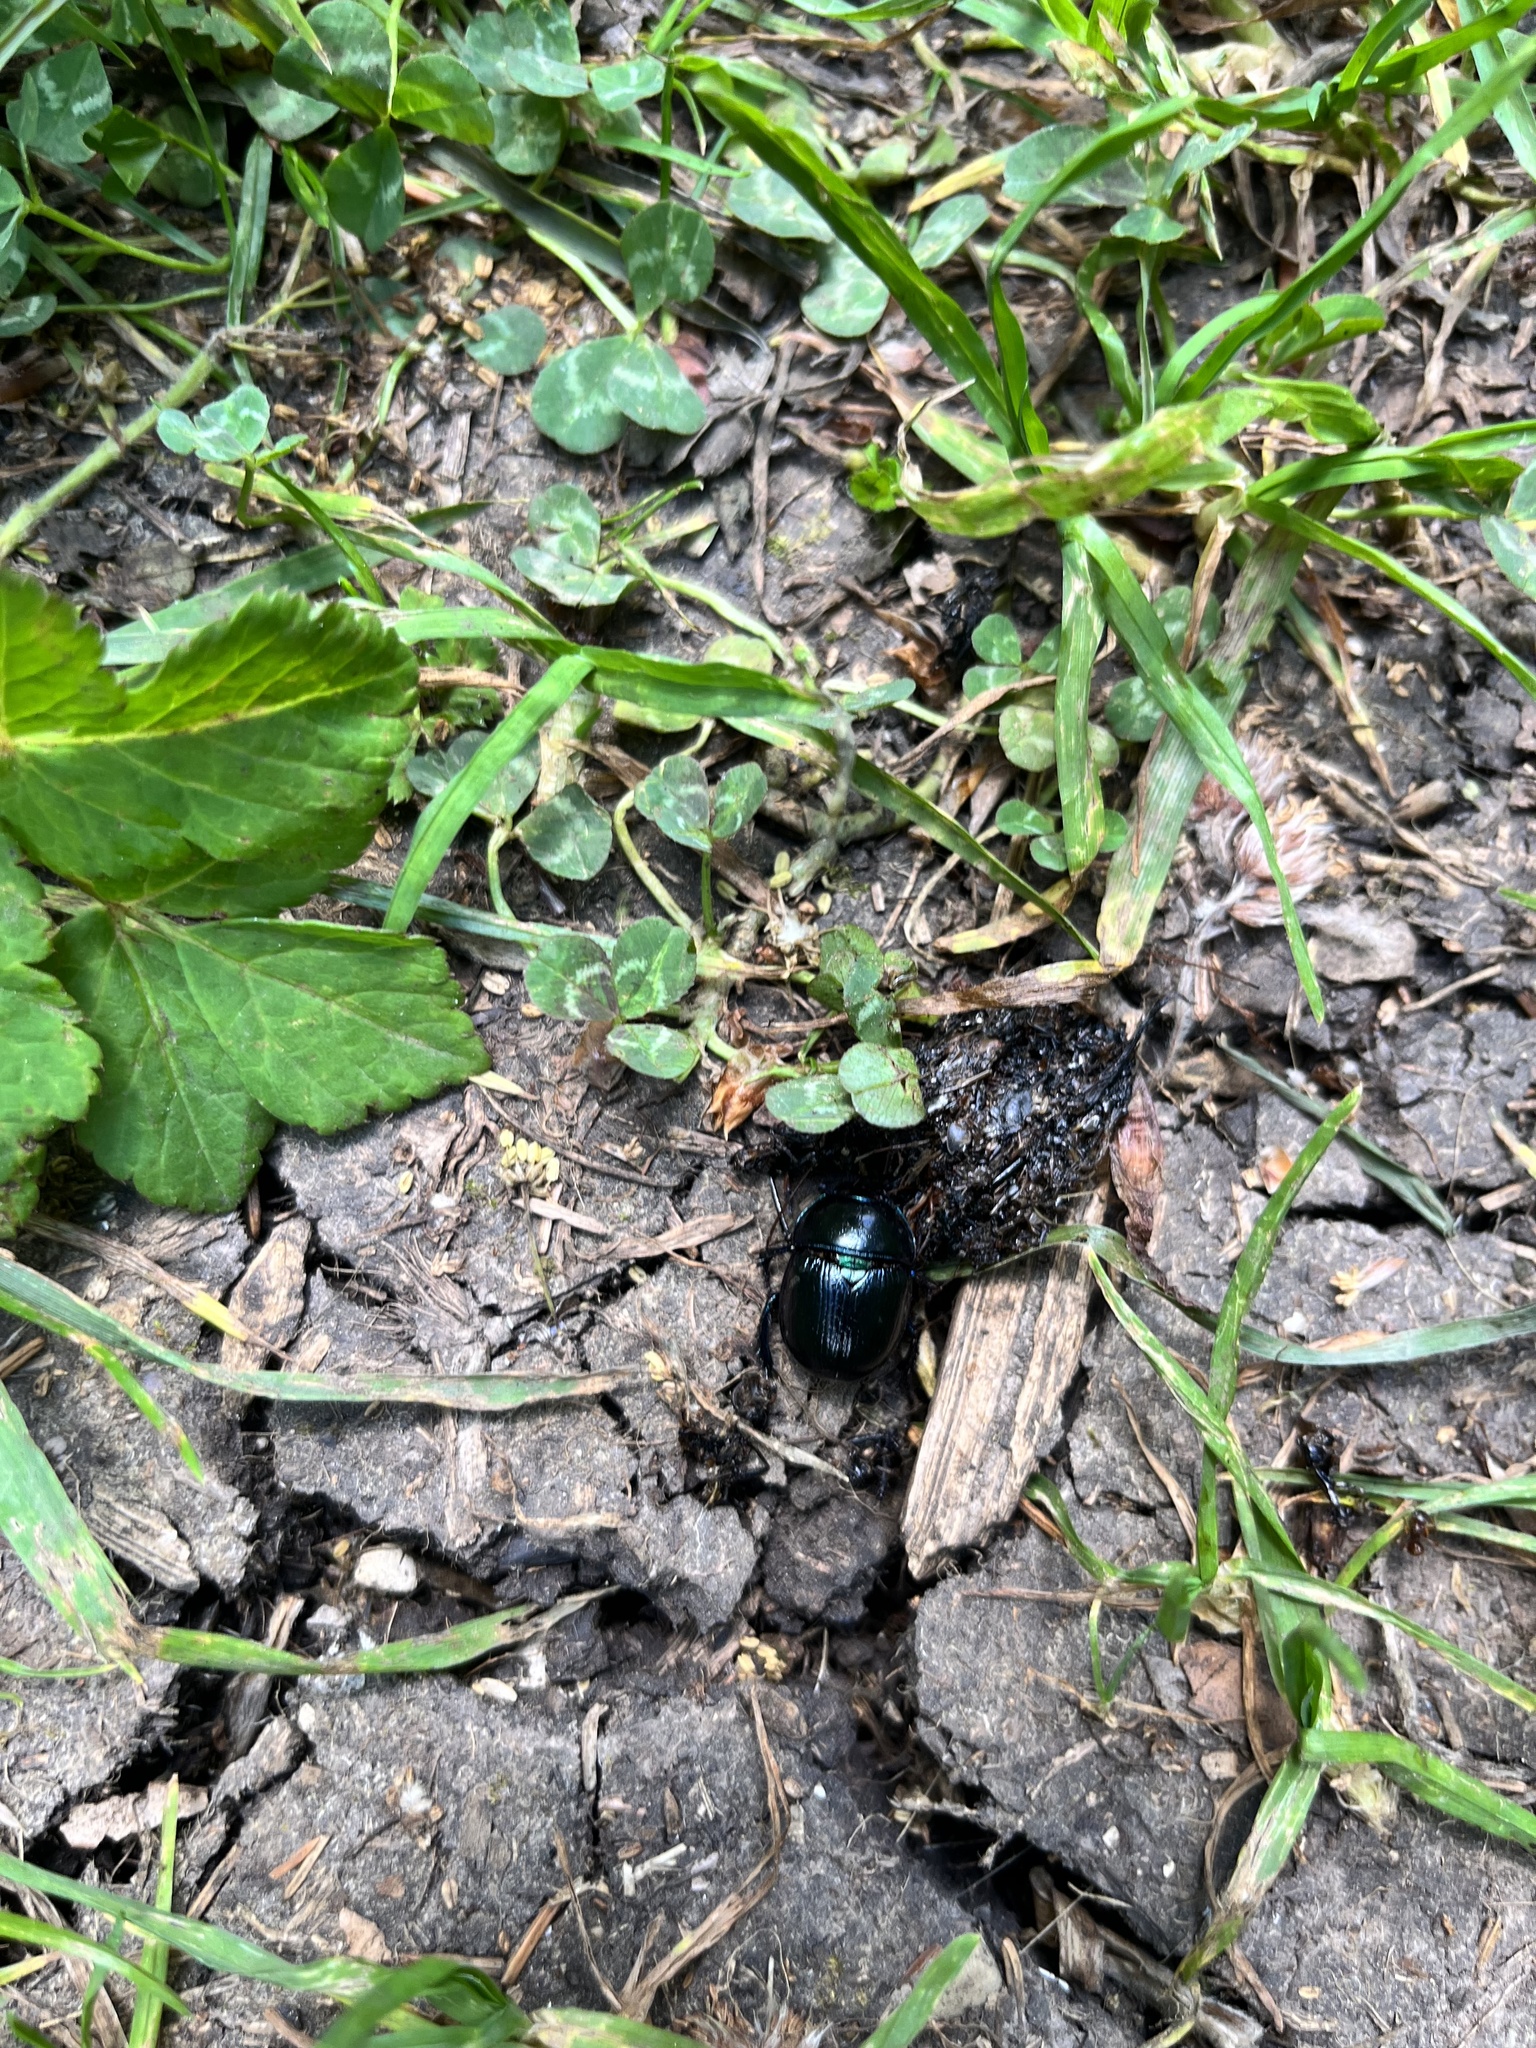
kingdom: Animalia
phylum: Arthropoda
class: Insecta
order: Coleoptera
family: Geotrupidae
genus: Anoplotrupes
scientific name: Anoplotrupes stercorosus
